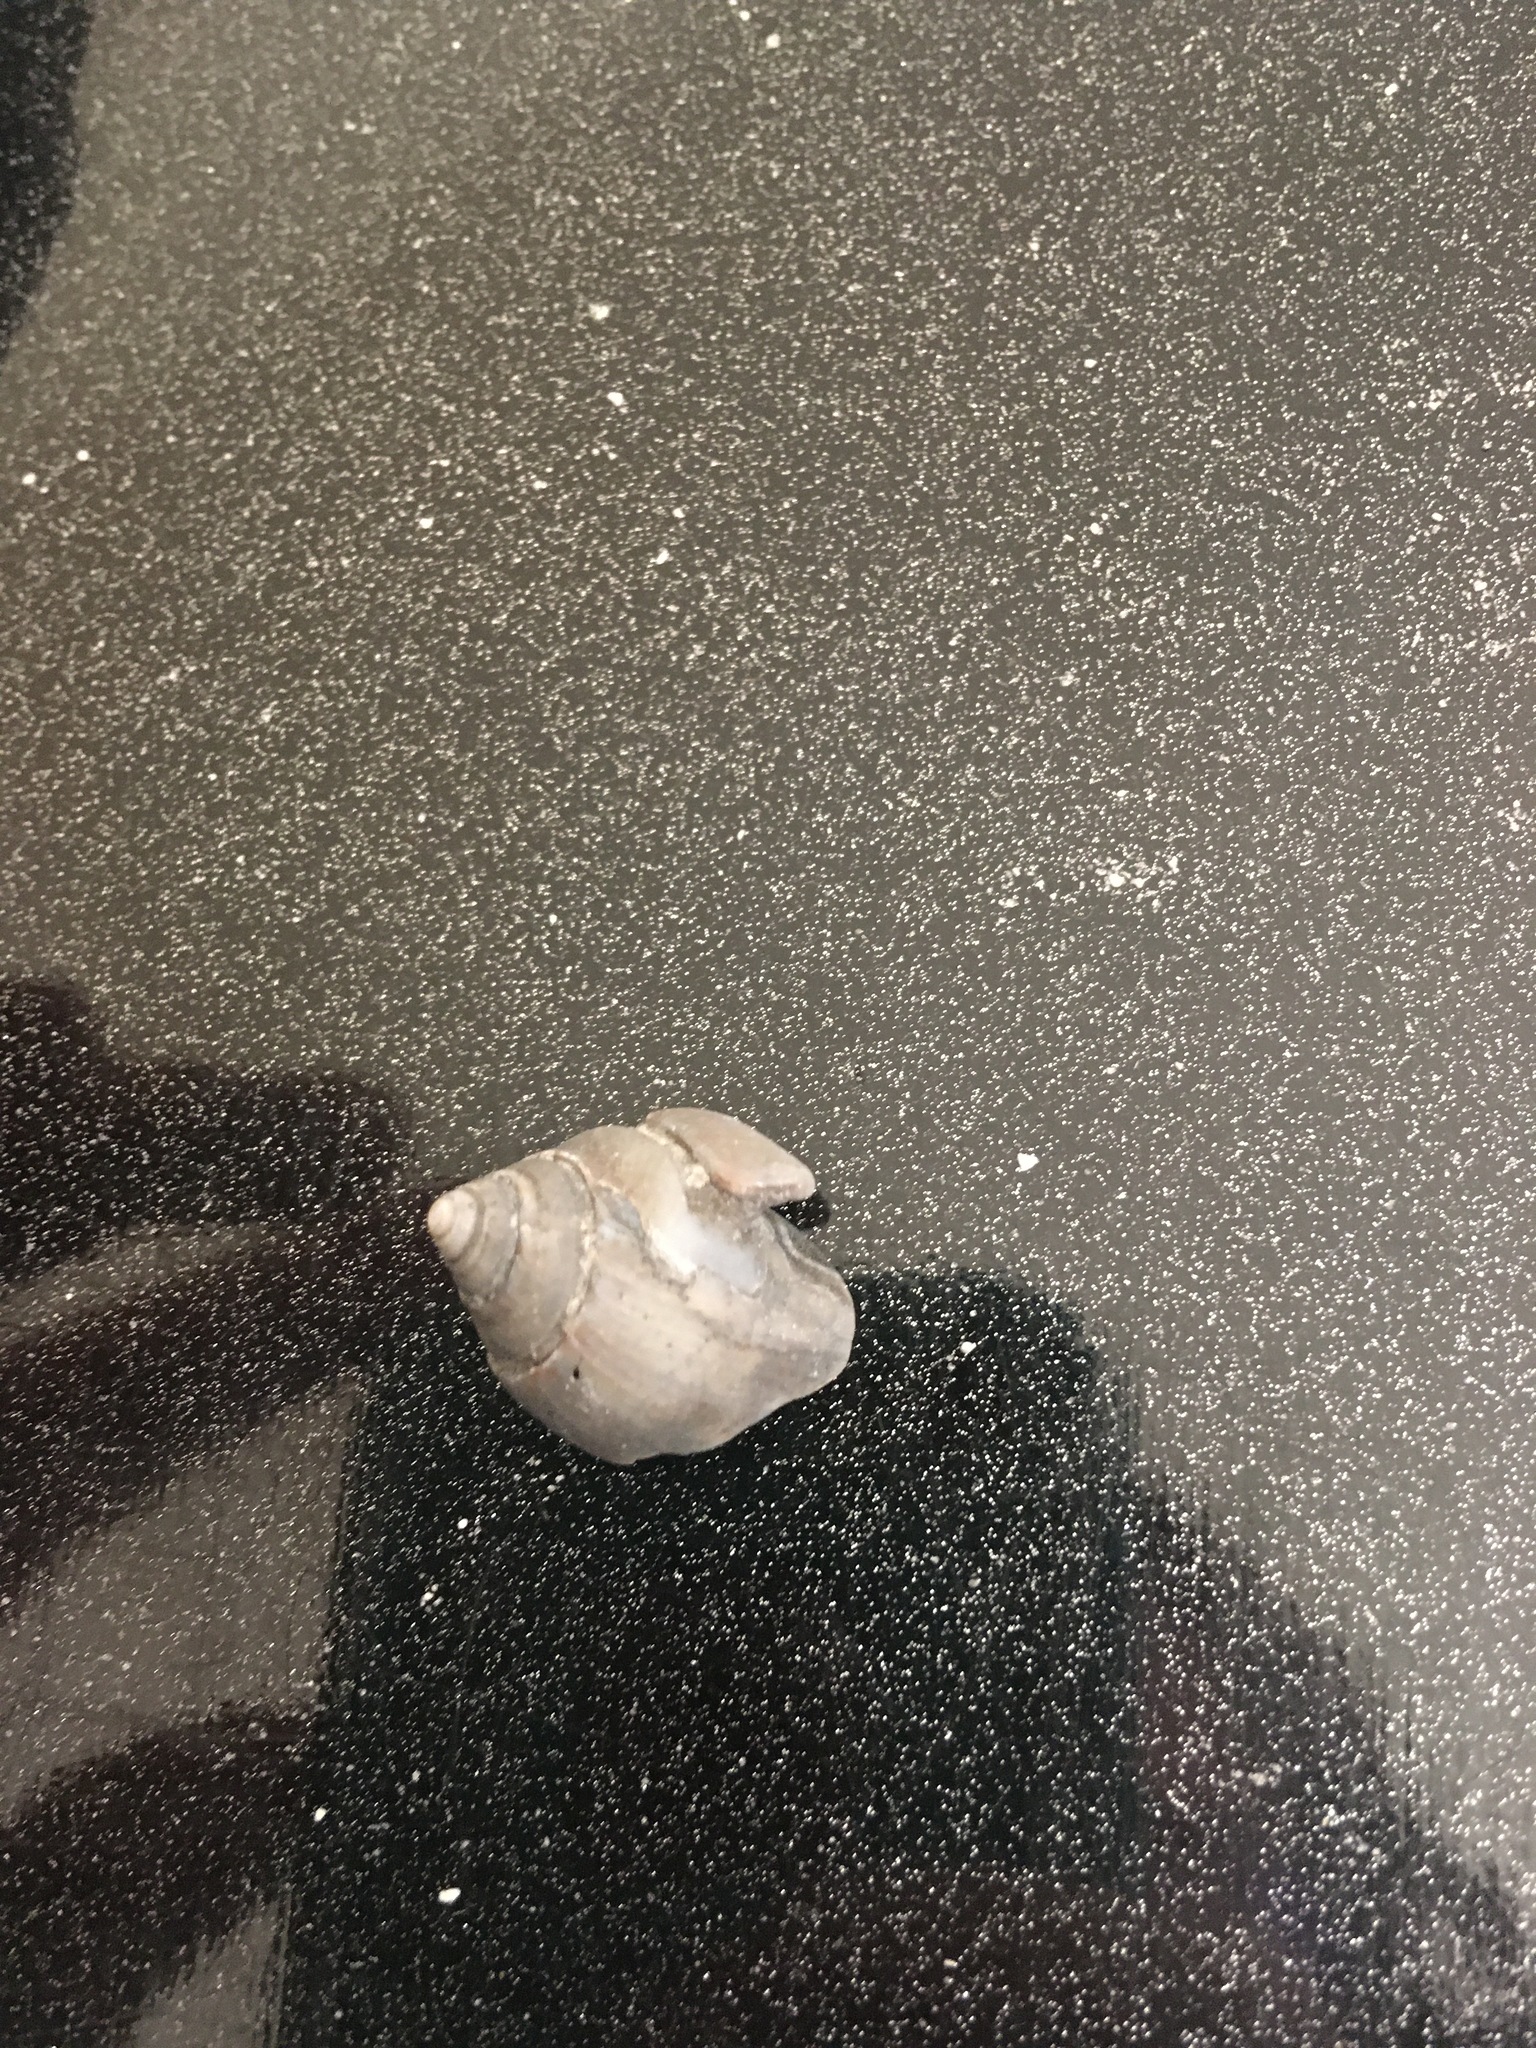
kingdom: Animalia
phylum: Mollusca
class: Gastropoda
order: Neogastropoda
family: Olividae
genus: Oliva
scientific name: Oliva sayana
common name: Lettered olive
